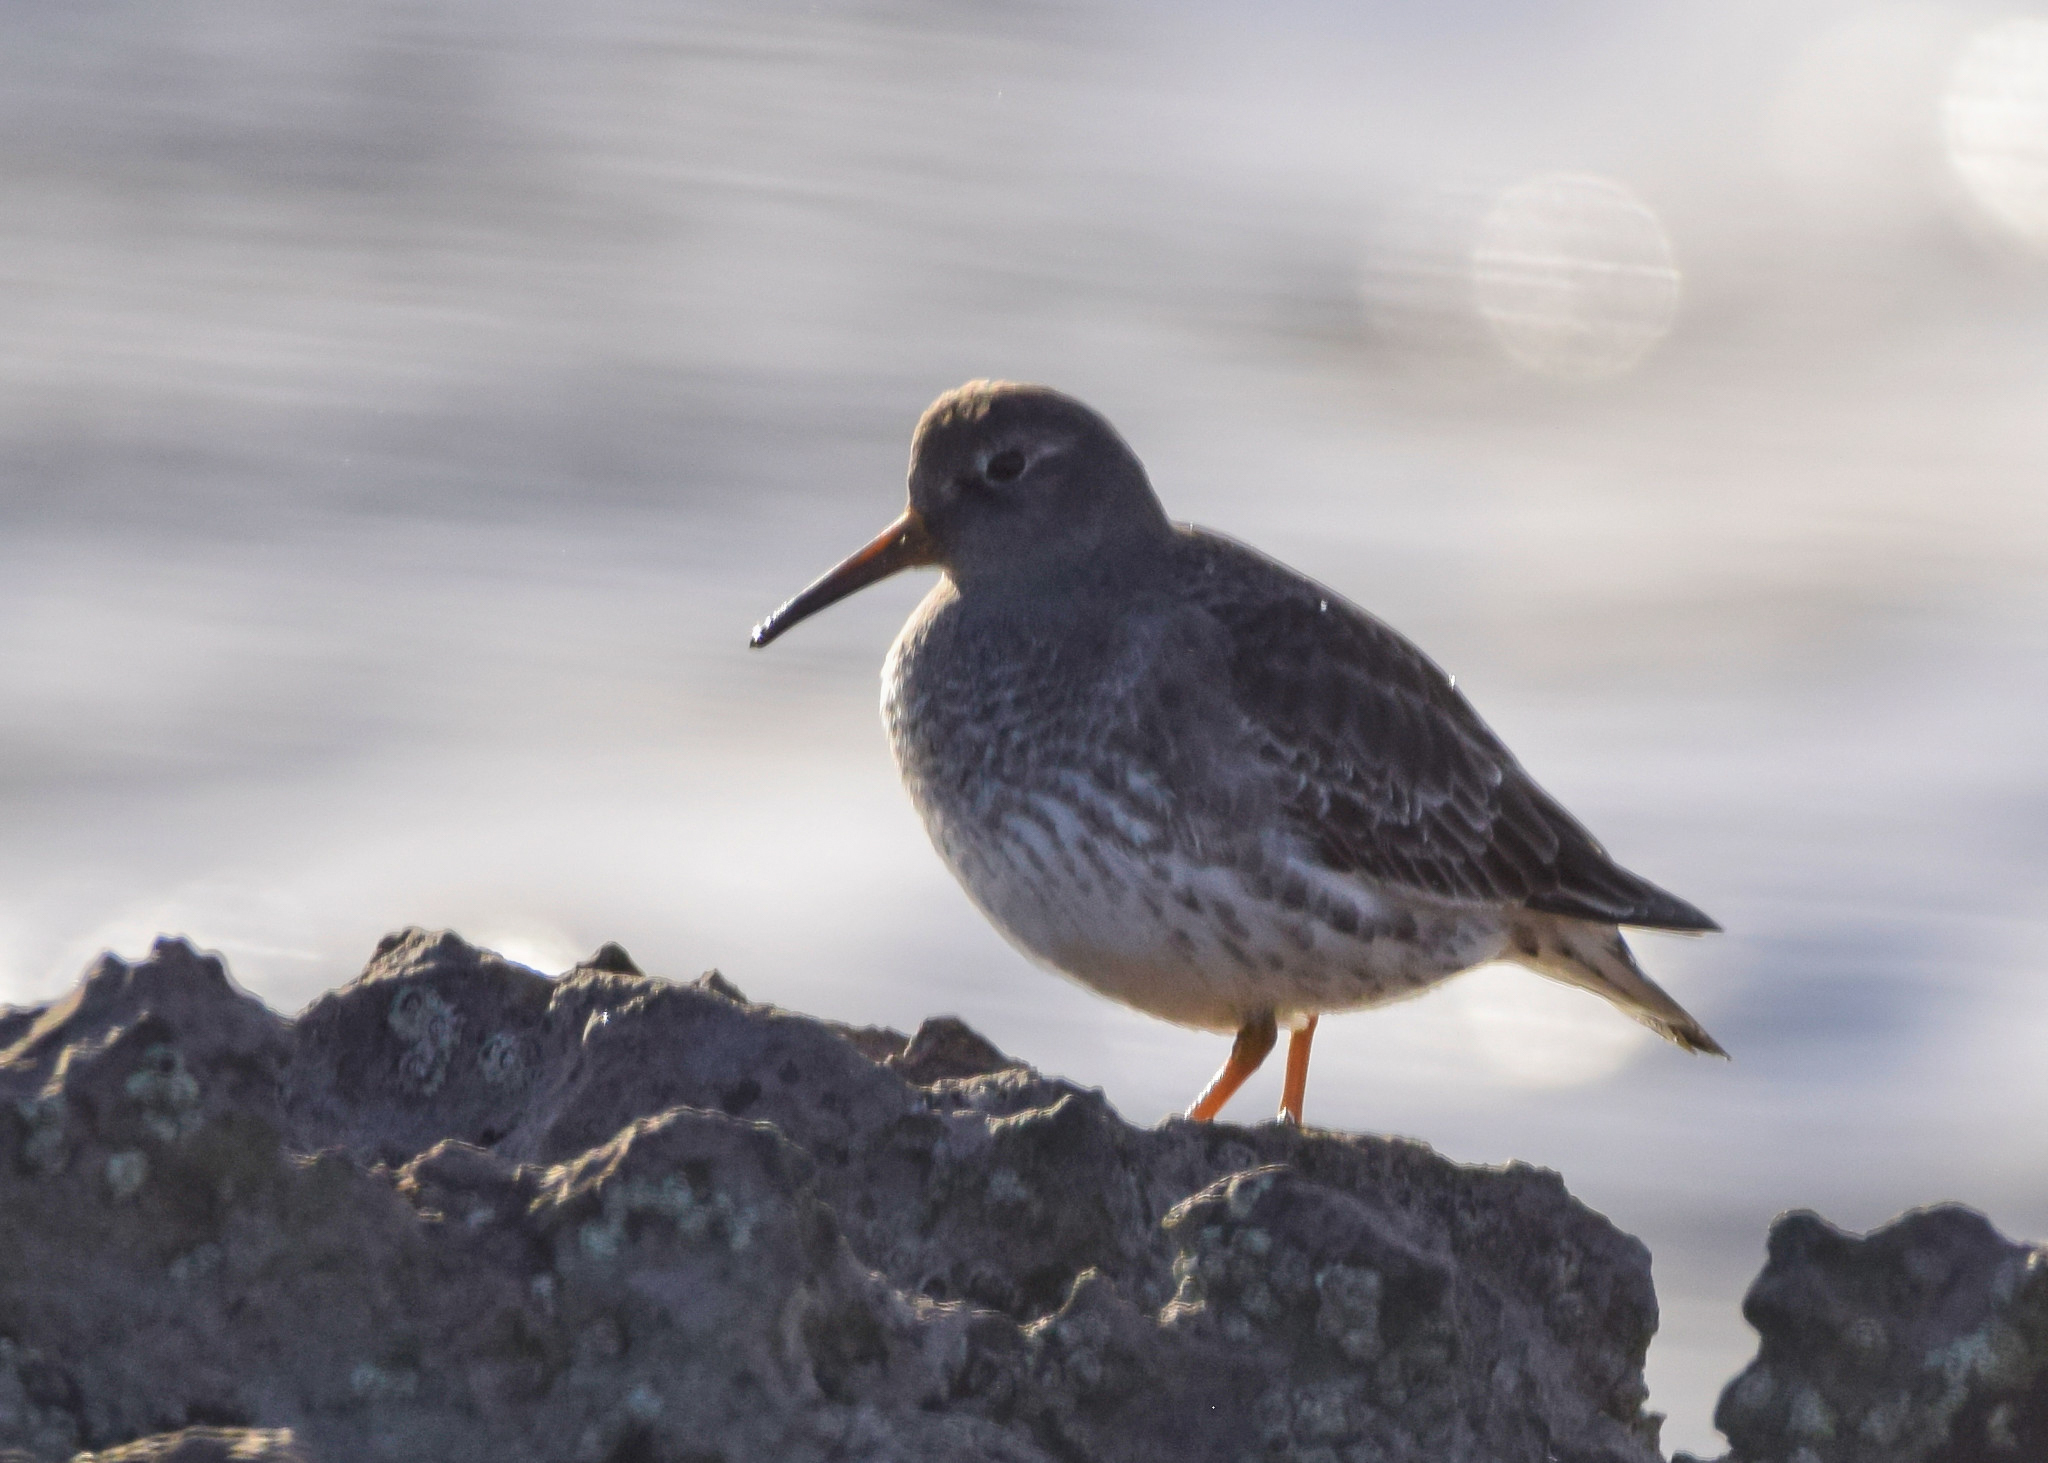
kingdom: Animalia
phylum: Chordata
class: Aves
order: Charadriiformes
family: Scolopacidae
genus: Calidris
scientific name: Calidris maritima
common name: Purple sandpiper
